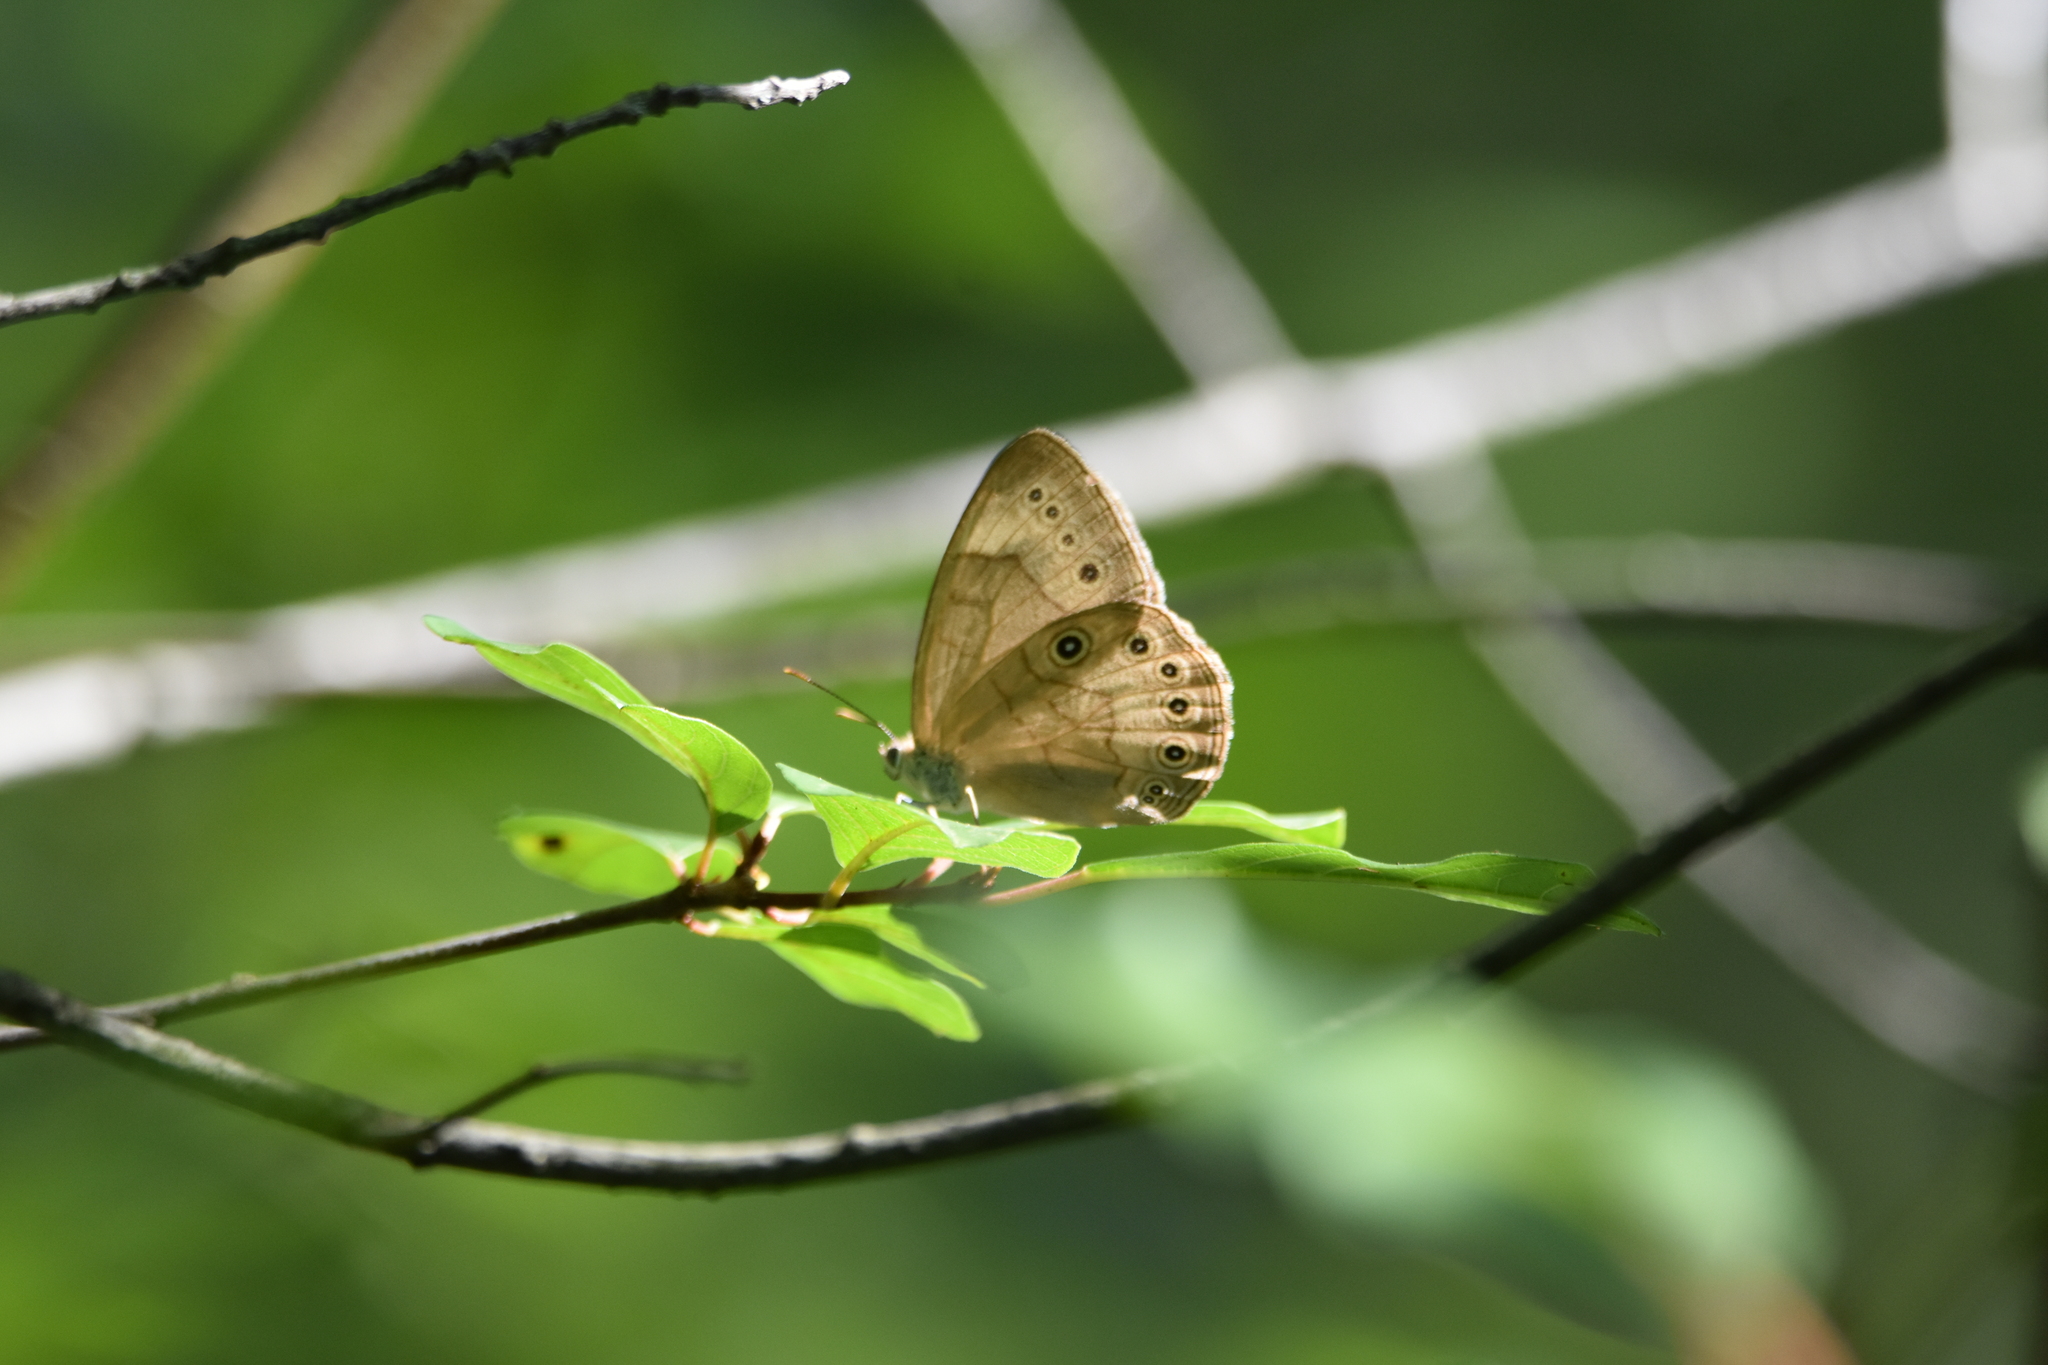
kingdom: Animalia
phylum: Arthropoda
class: Insecta
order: Lepidoptera
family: Nymphalidae
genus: Lethe
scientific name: Lethe eurydice
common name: Eyed brown
